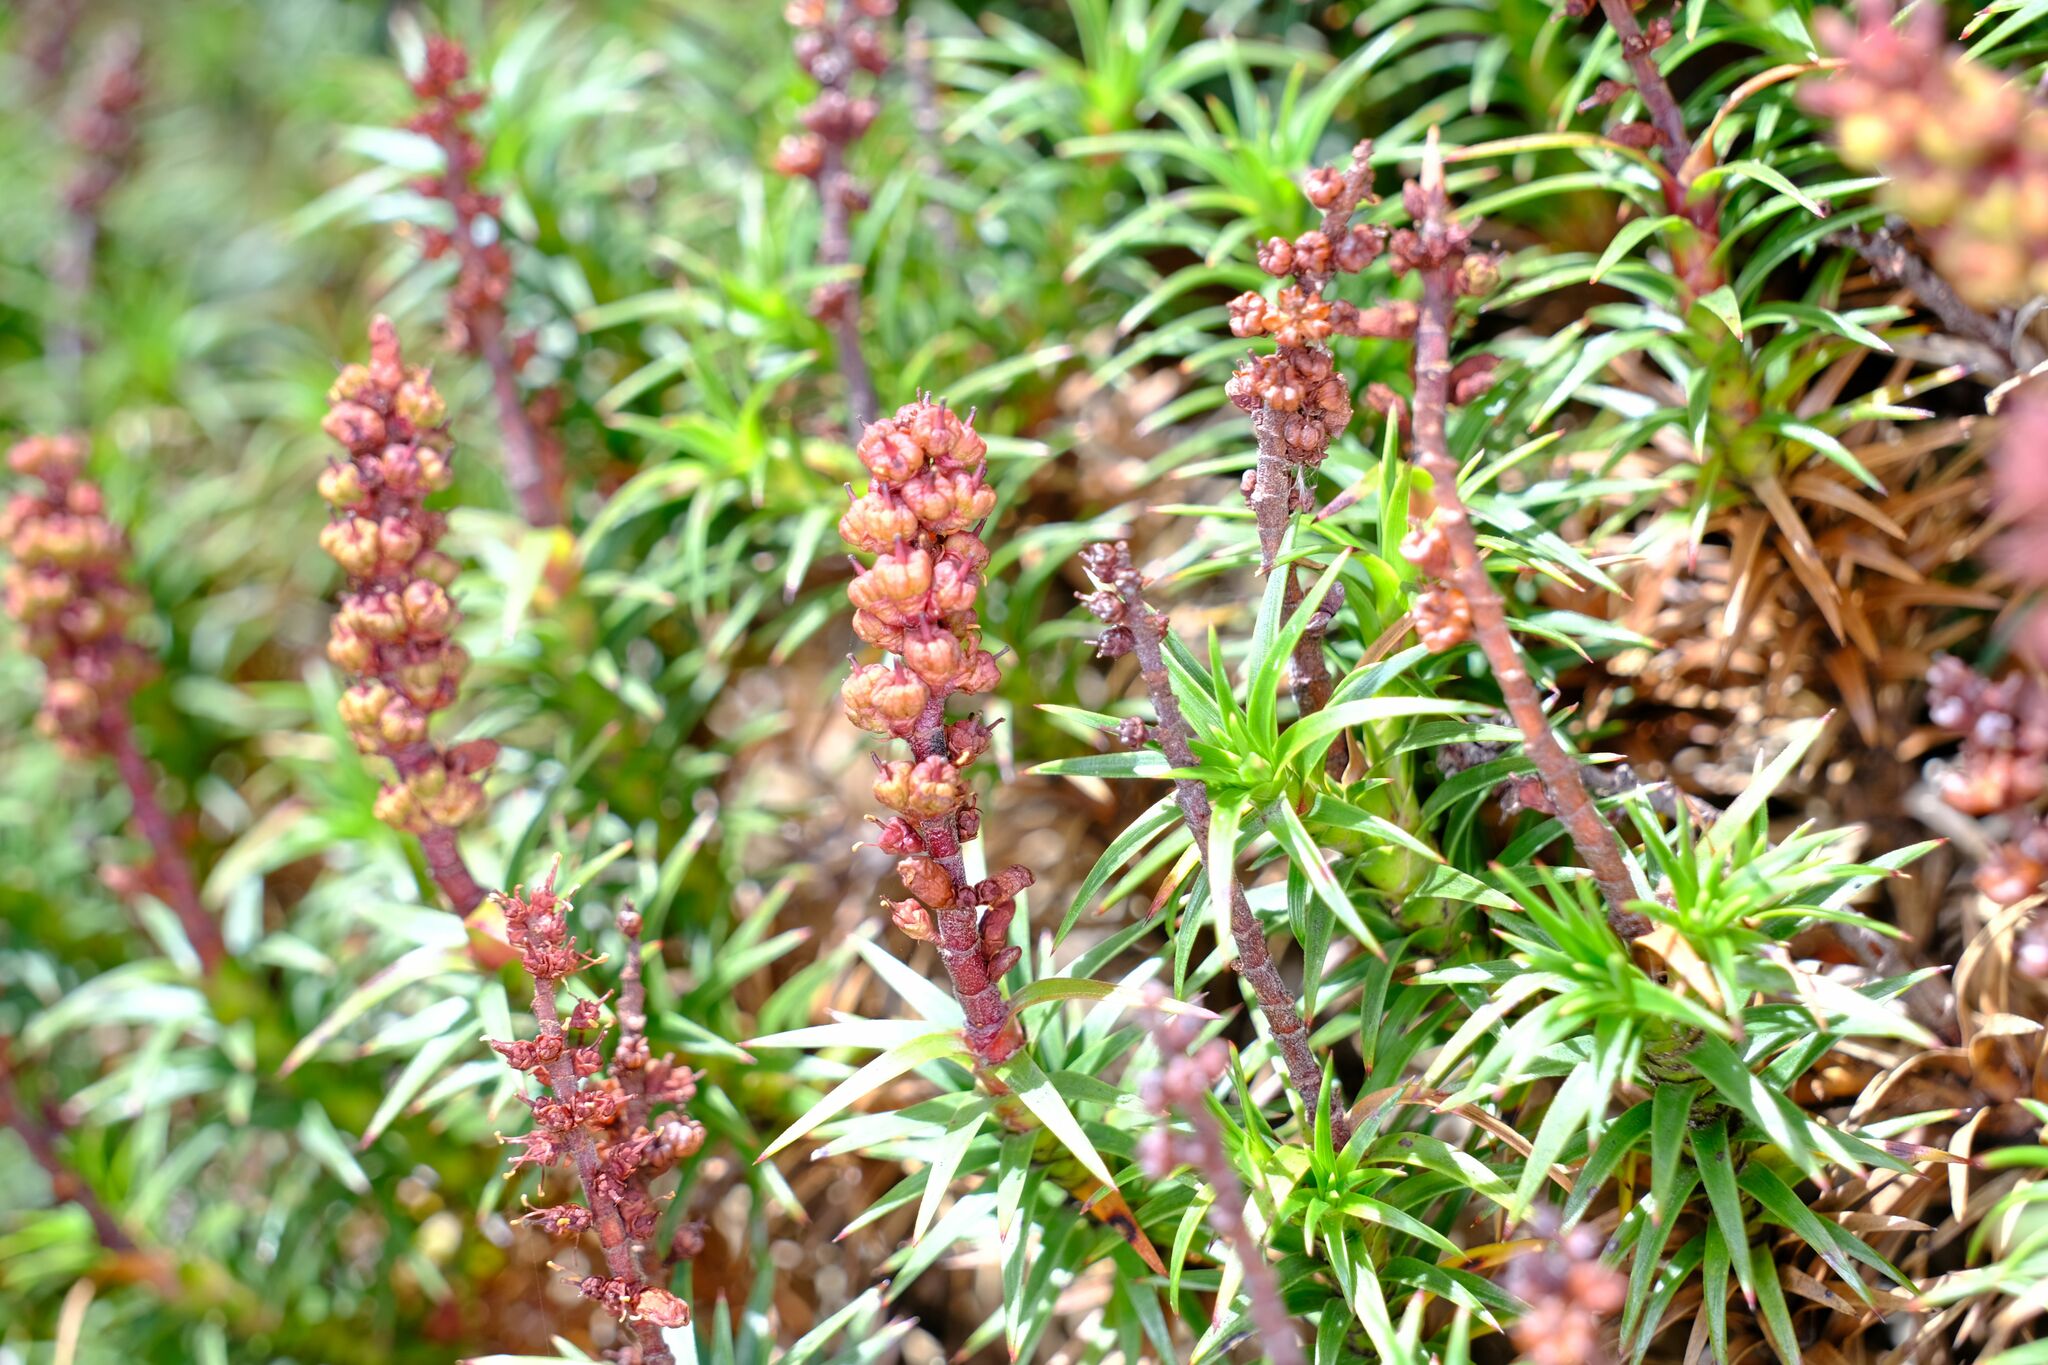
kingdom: Plantae
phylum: Tracheophyta
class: Magnoliopsida
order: Ericales
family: Ericaceae
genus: Dracophyllum
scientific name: Dracophyllum persistentifolium
